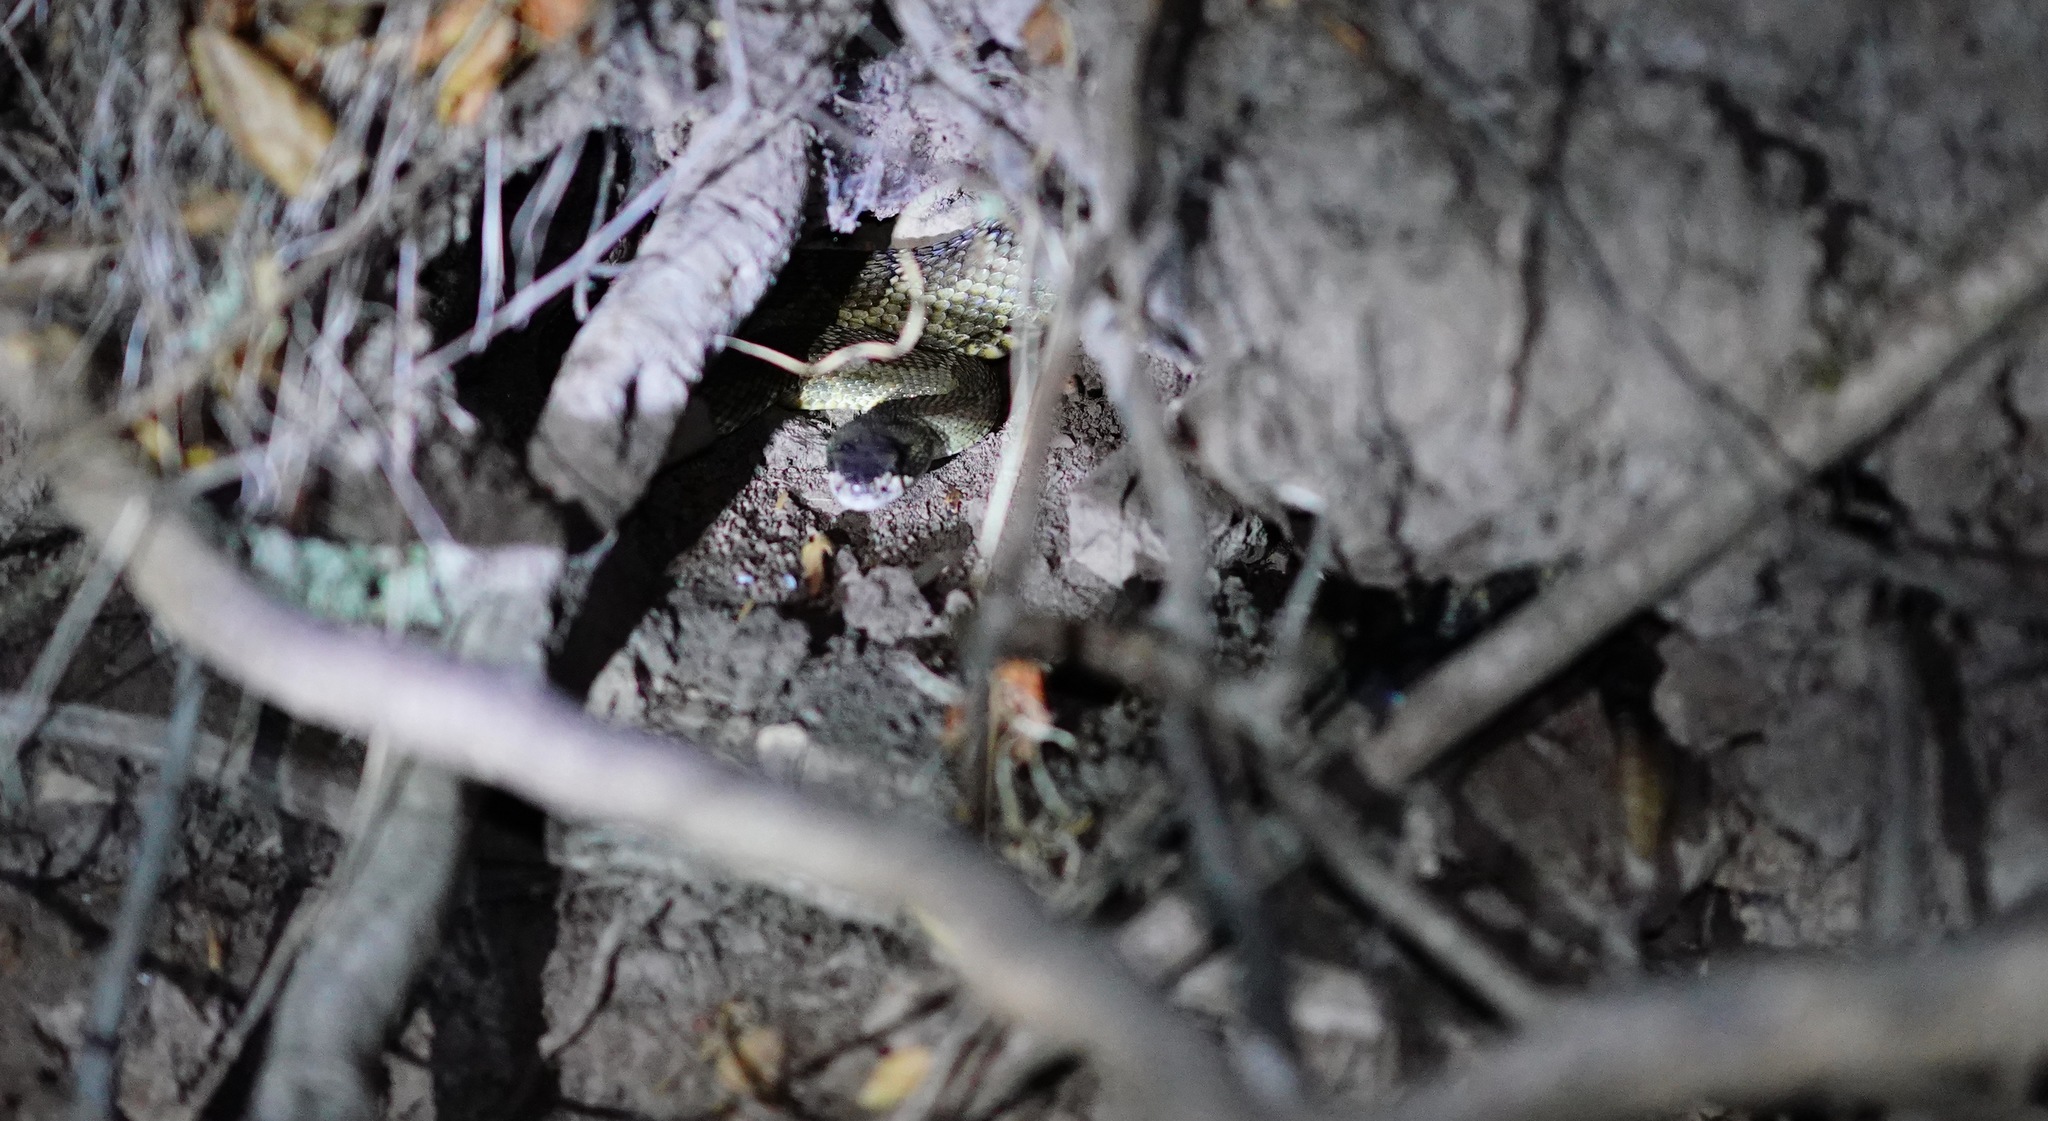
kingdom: Animalia
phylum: Chordata
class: Squamata
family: Viperidae
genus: Crotalus
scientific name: Crotalus oreganus
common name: Abyssus
